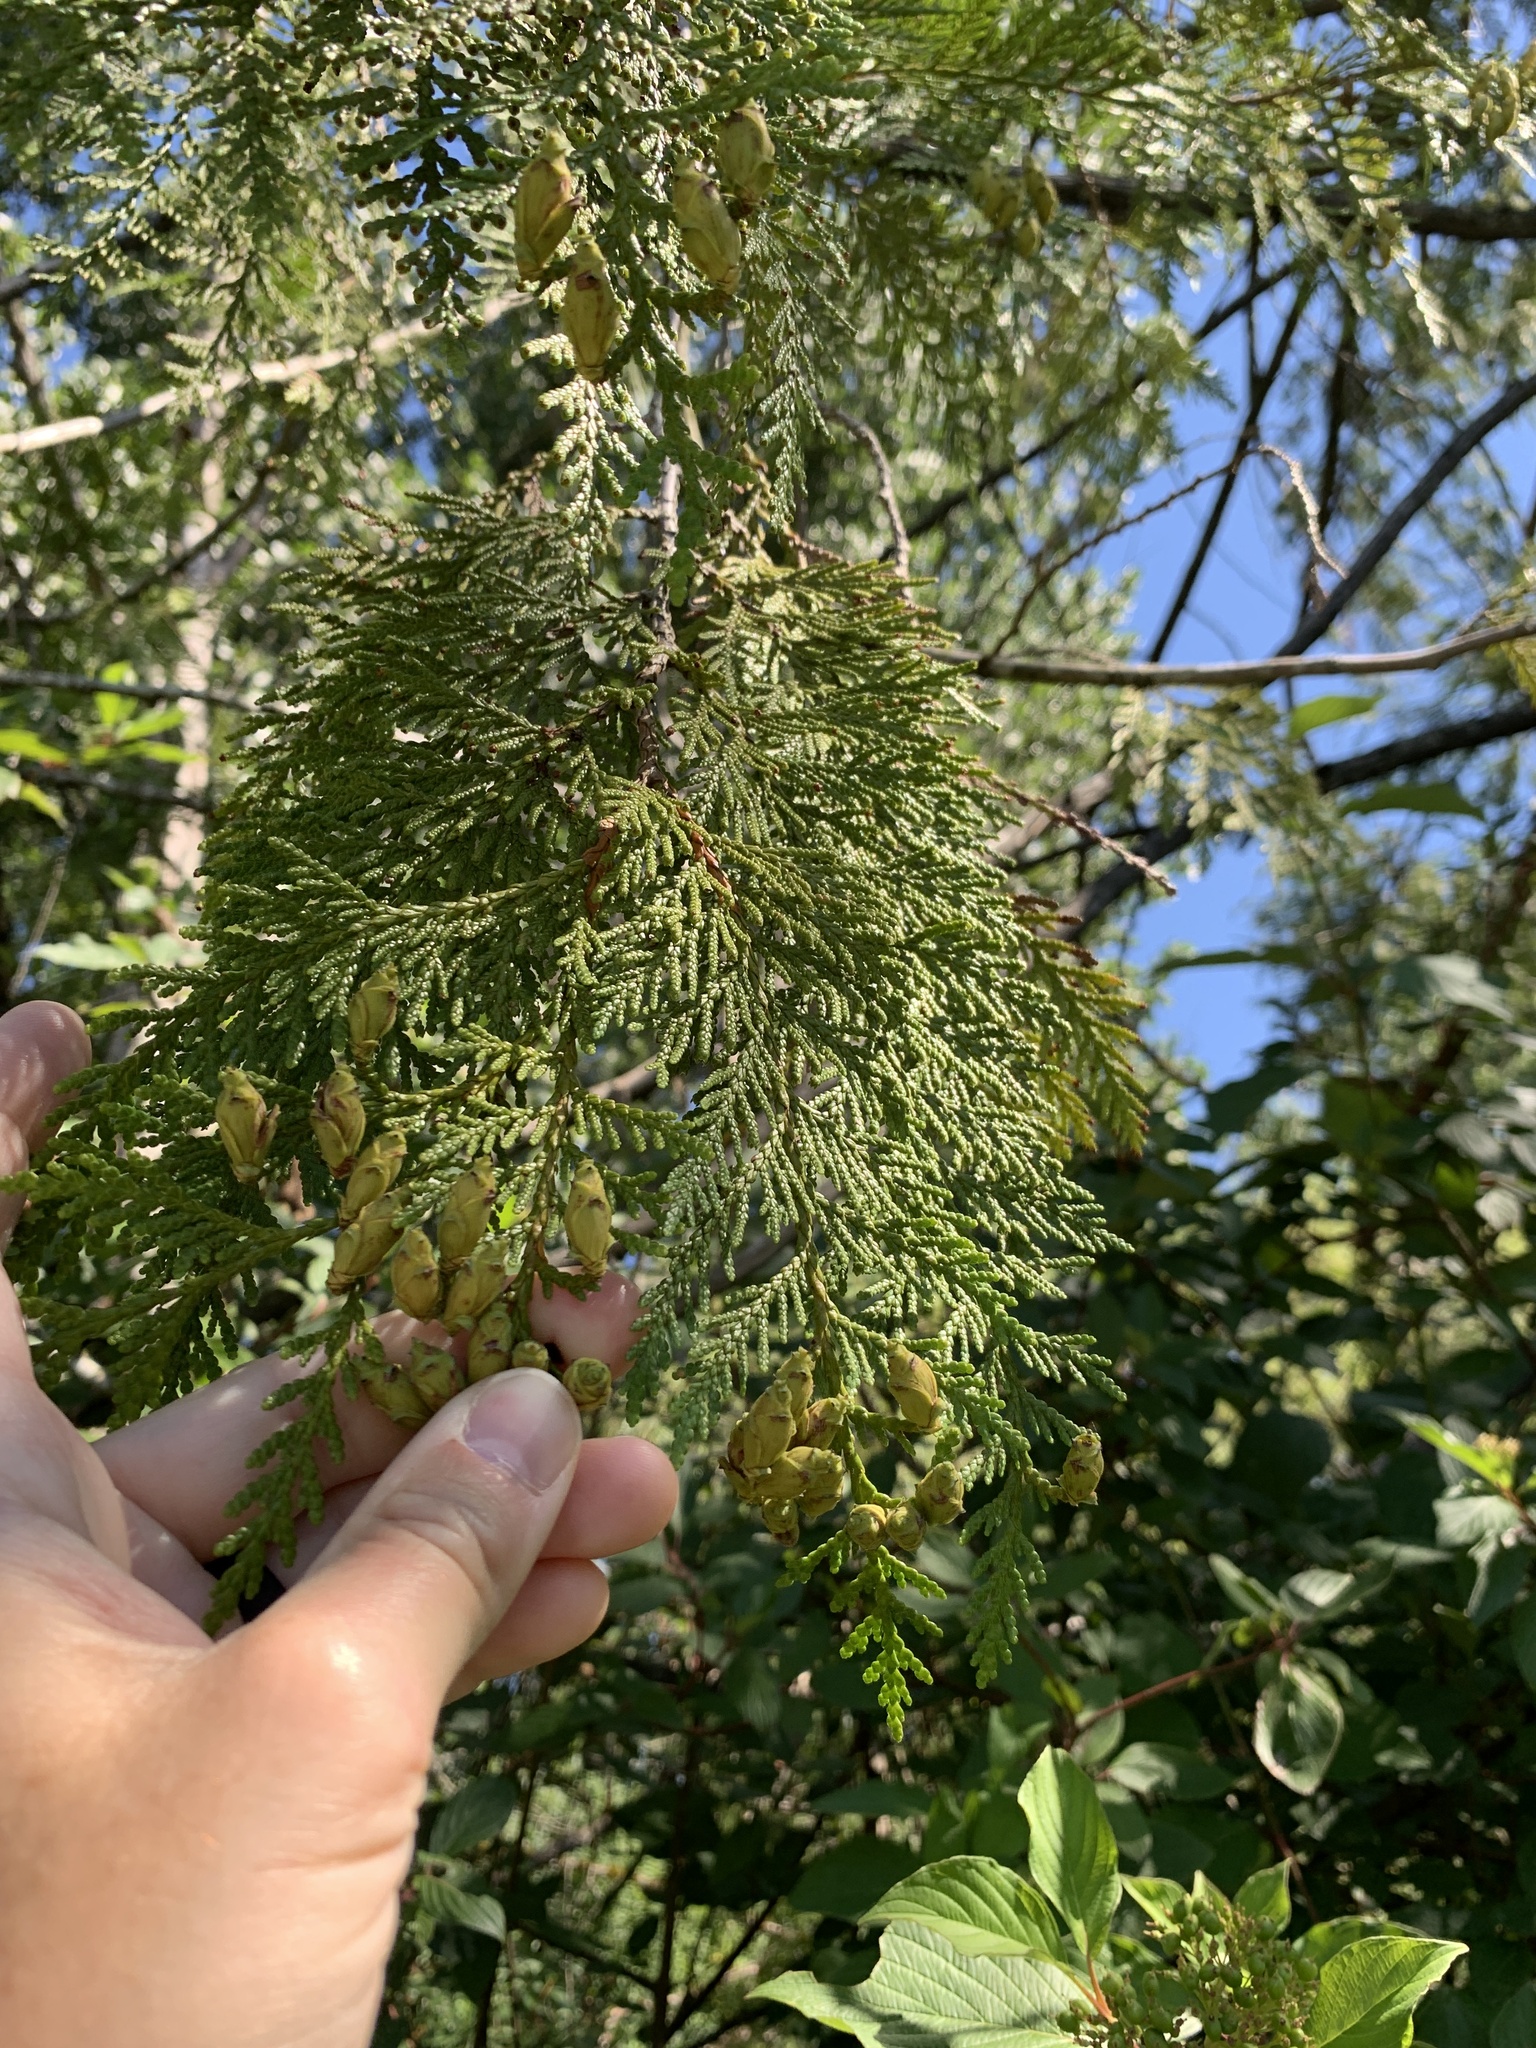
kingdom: Plantae
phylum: Tracheophyta
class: Pinopsida
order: Pinales
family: Cupressaceae
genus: Thuja
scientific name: Thuja plicata
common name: Western red-cedar
